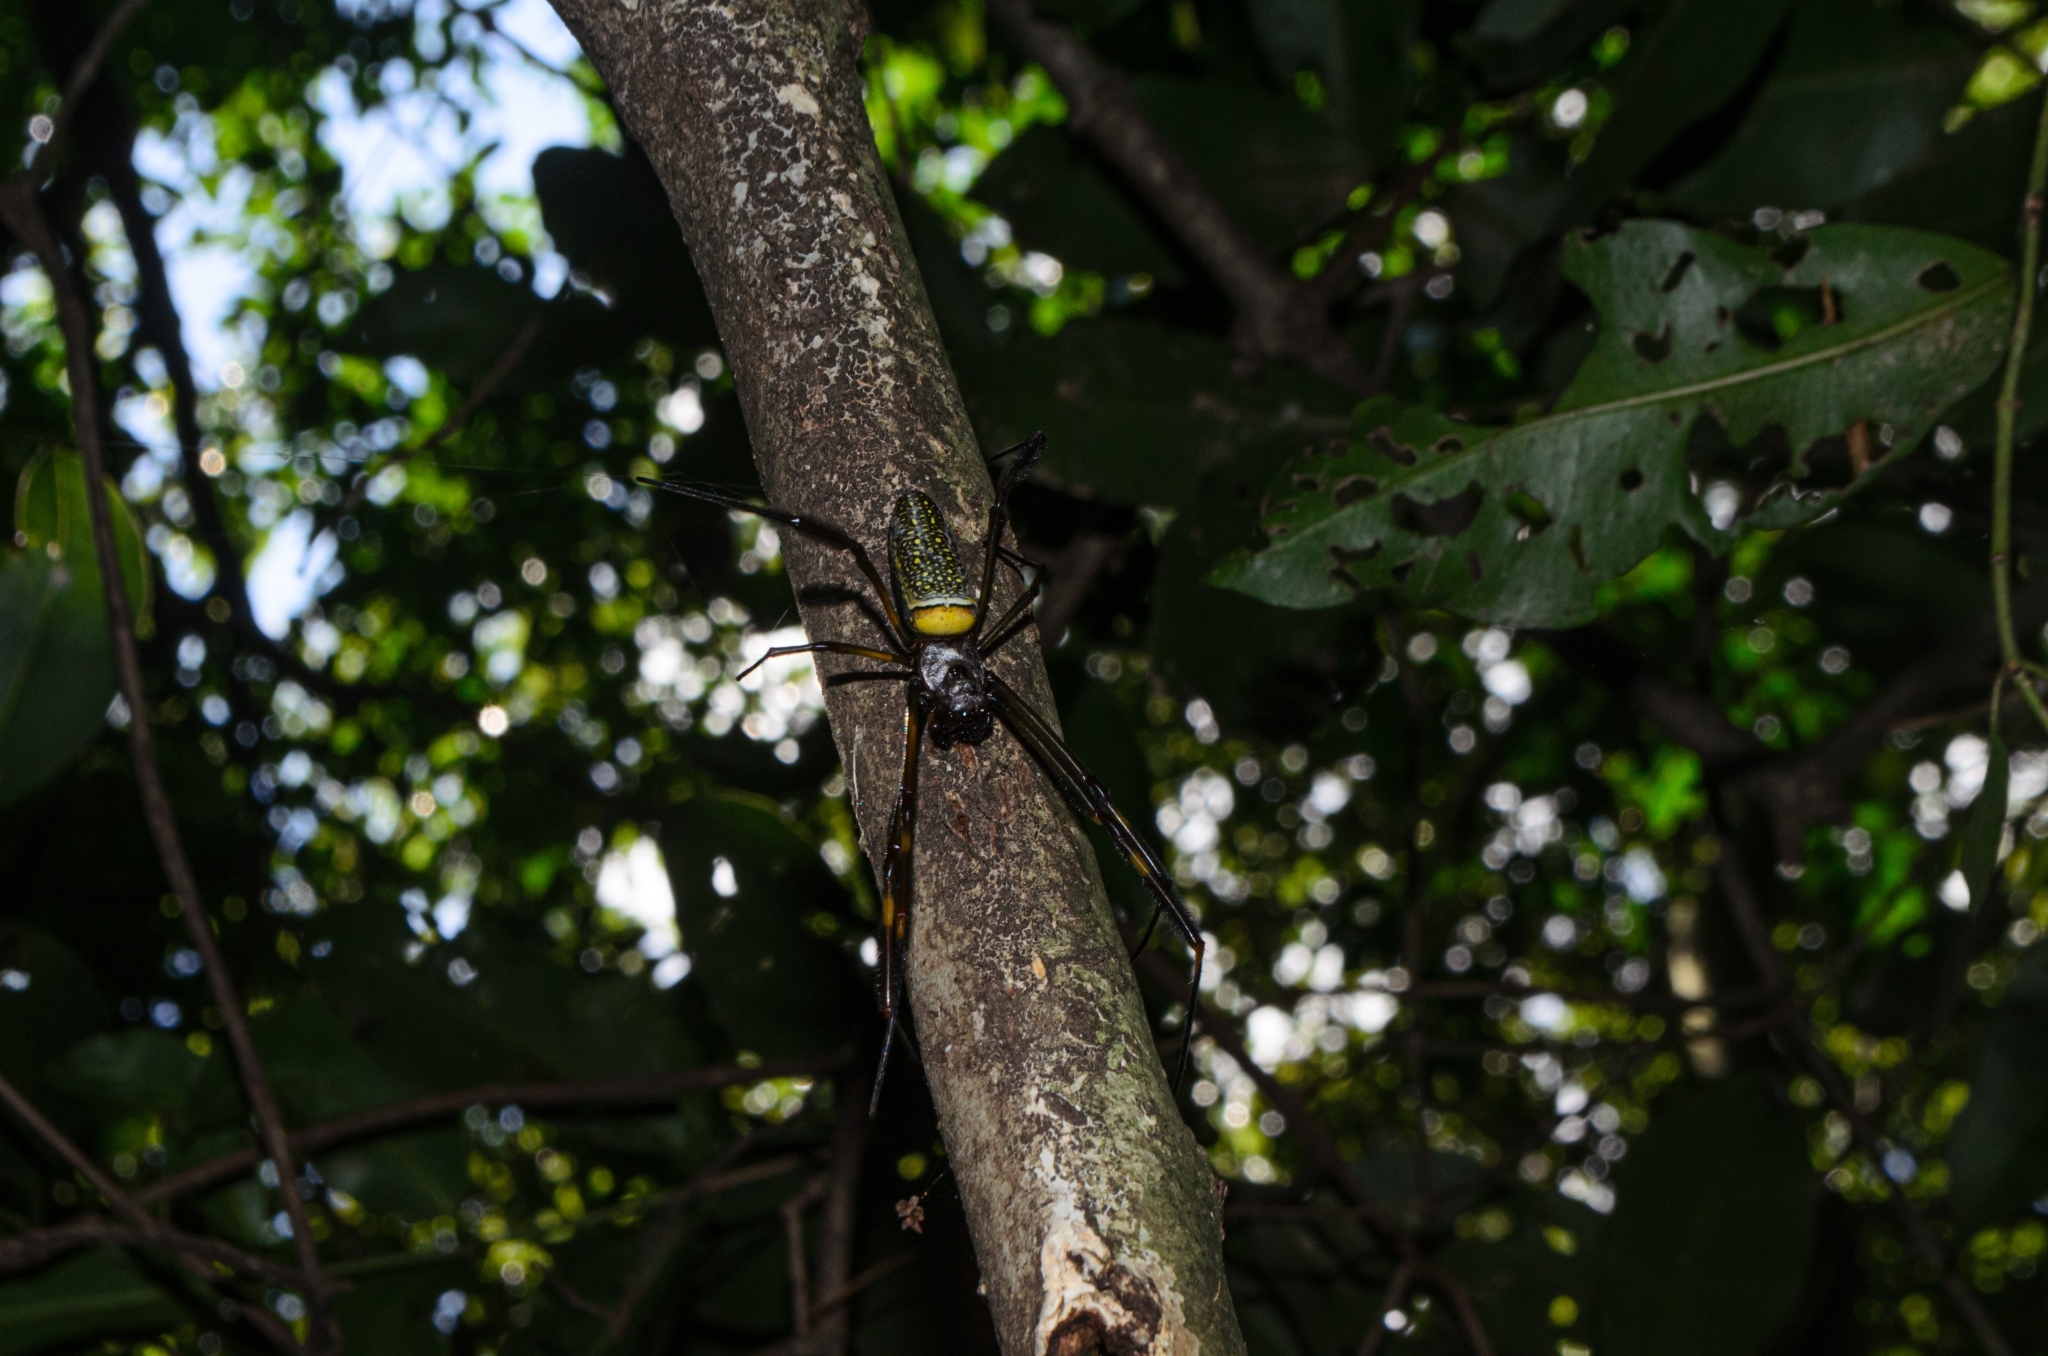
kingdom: Animalia
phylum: Arthropoda
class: Arachnida
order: Araneae
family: Araneidae
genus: Trichonephila
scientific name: Trichonephila clavipes
